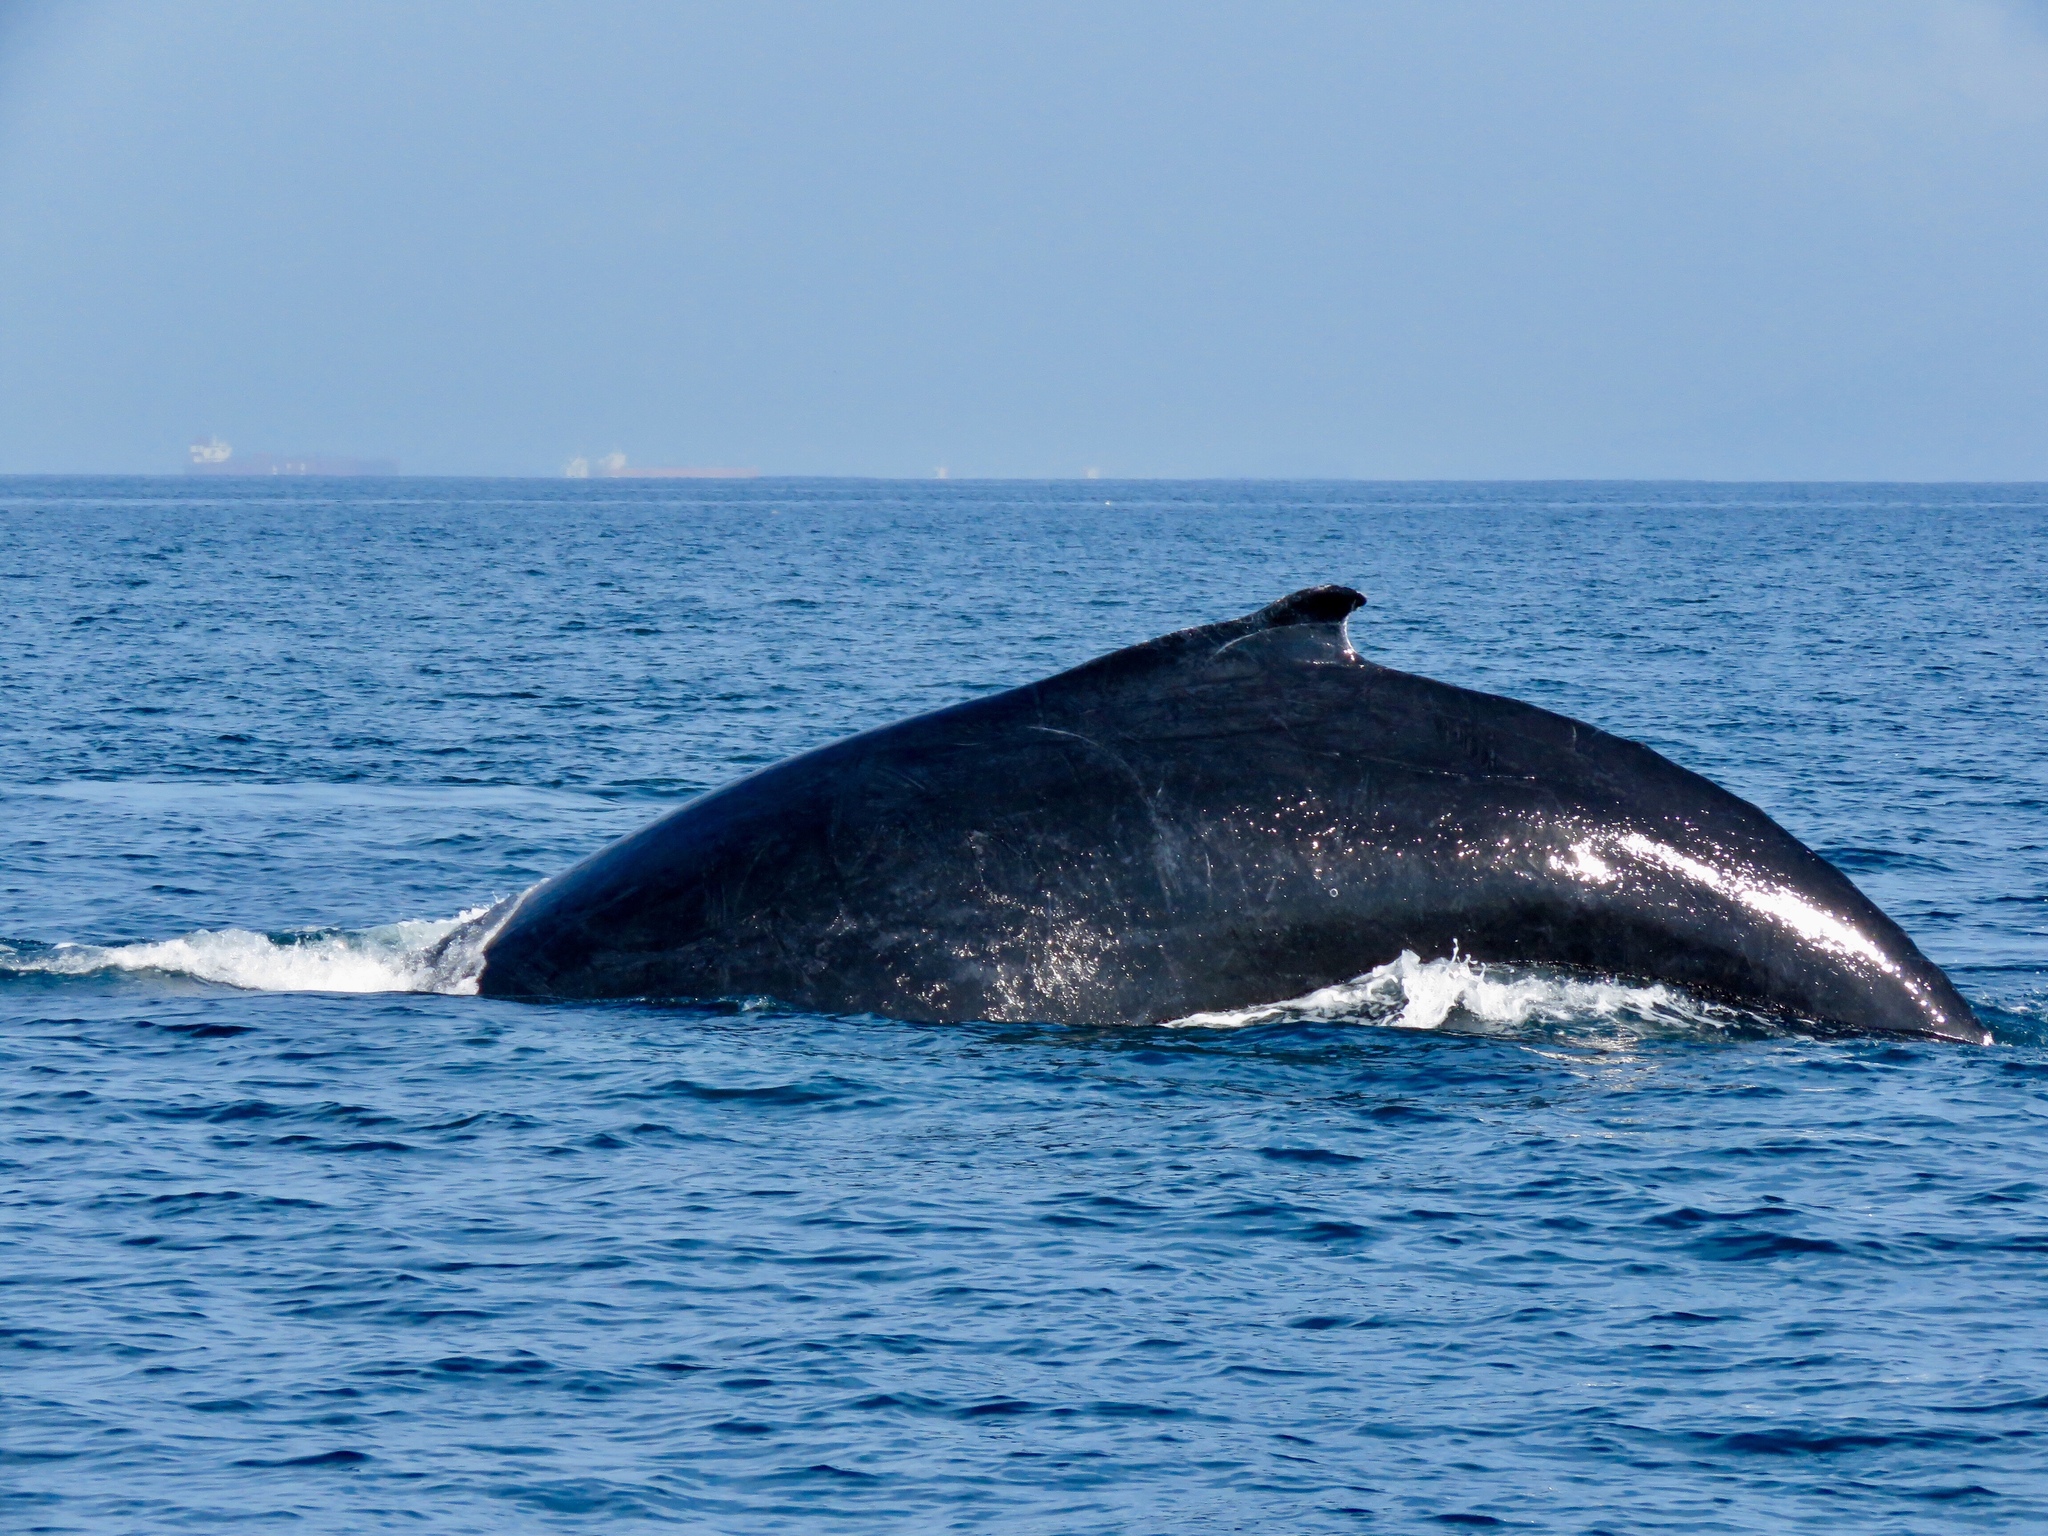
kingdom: Animalia
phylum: Chordata
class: Mammalia
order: Cetacea
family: Balaenopteridae
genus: Megaptera
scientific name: Megaptera novaeangliae
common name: Humpback whale
